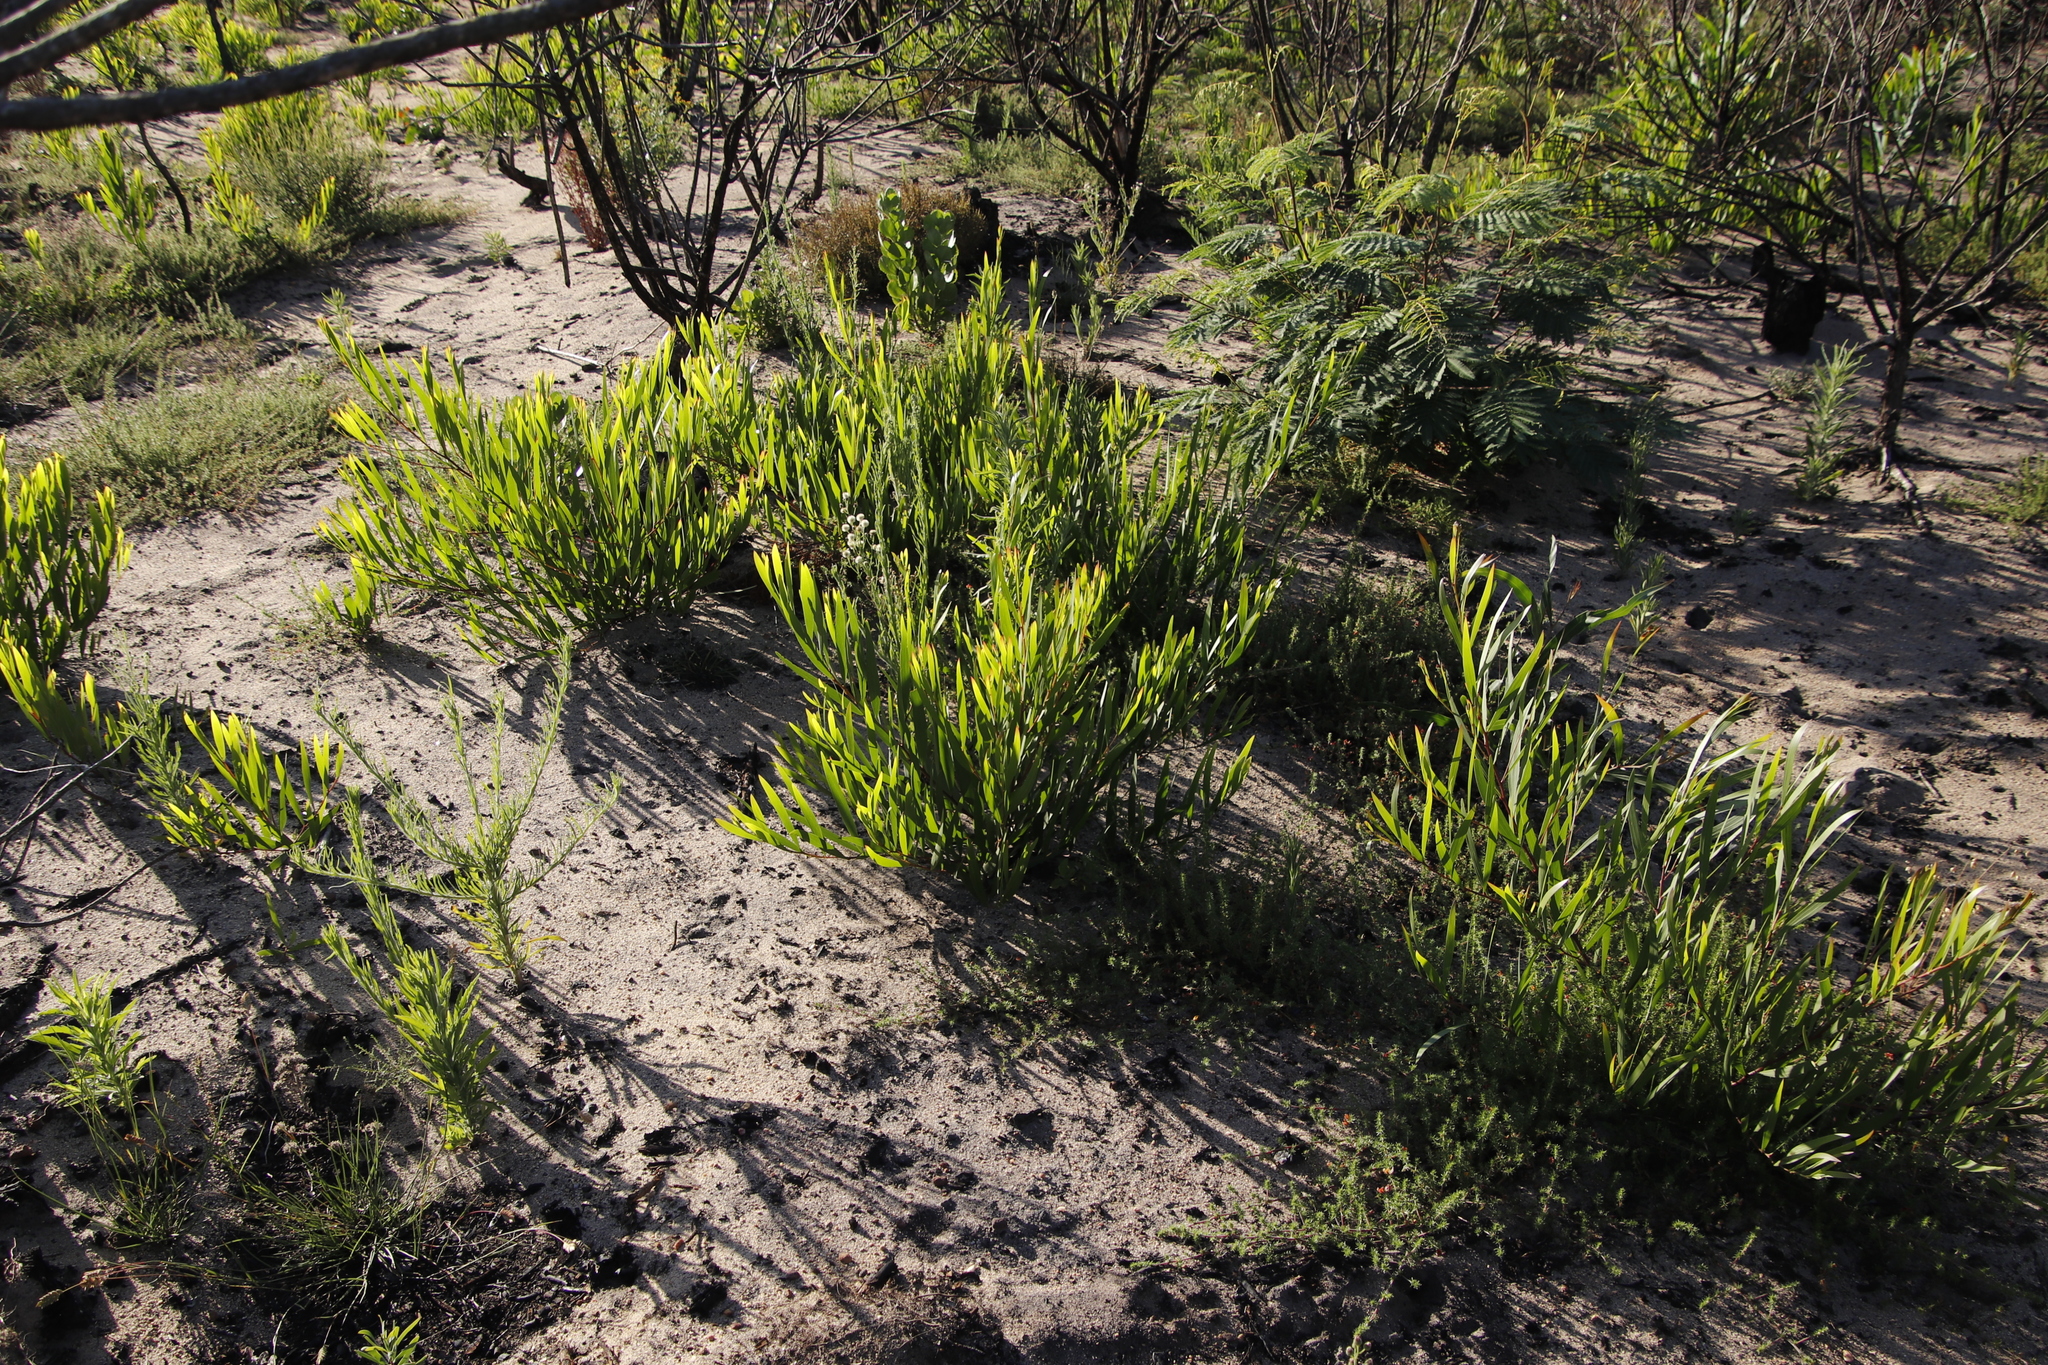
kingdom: Plantae
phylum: Tracheophyta
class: Magnoliopsida
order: Fabales
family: Fabaceae
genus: Acacia
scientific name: Acacia longifolia
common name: Sydney golden wattle
